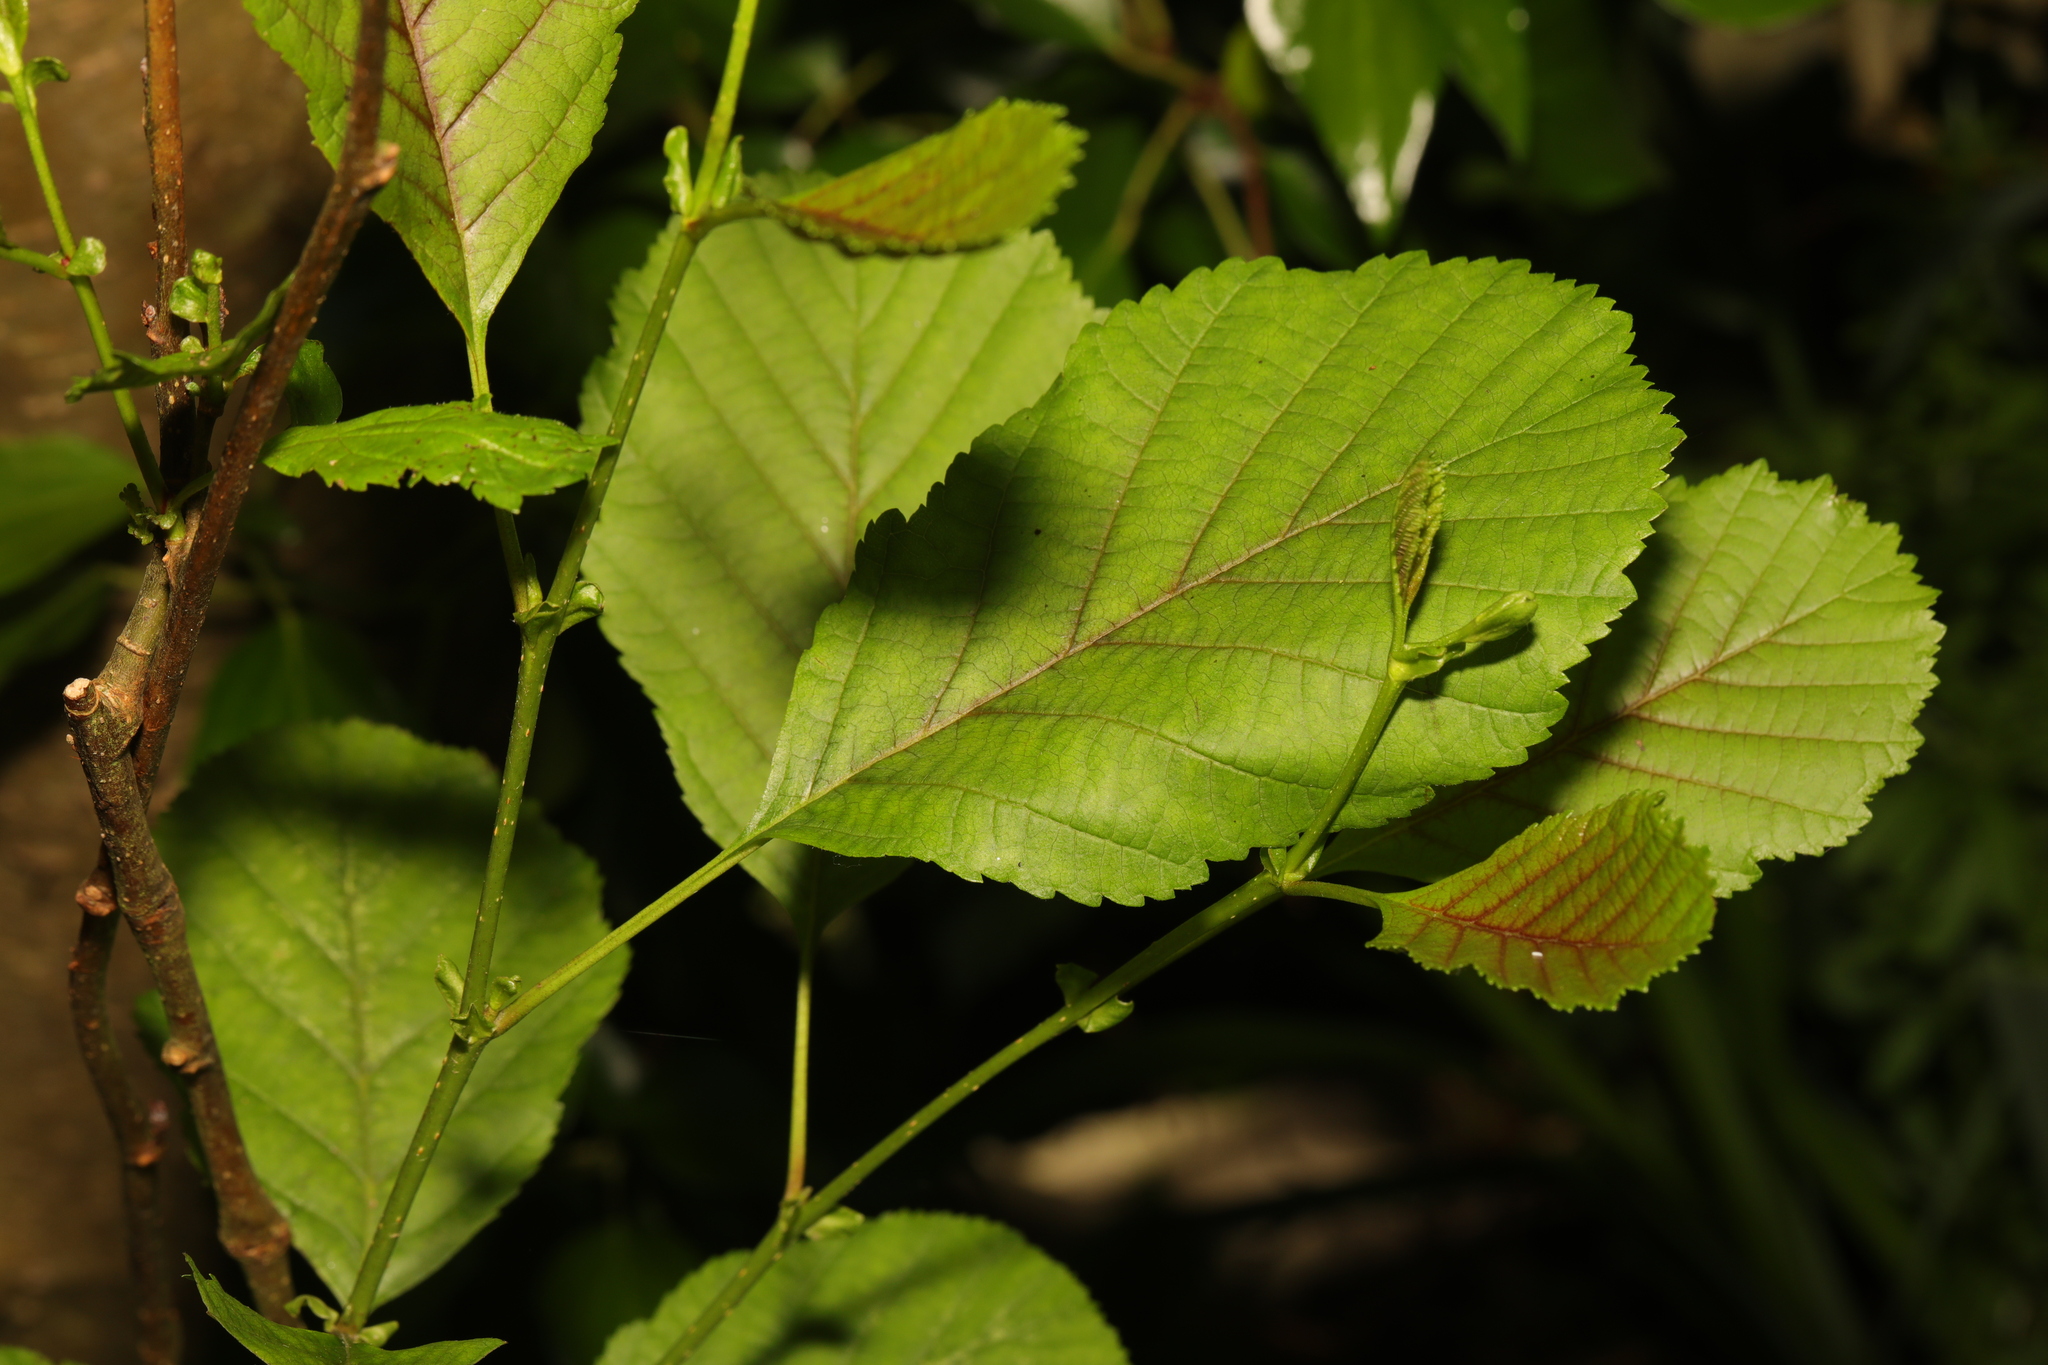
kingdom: Plantae
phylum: Tracheophyta
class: Magnoliopsida
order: Fagales
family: Betulaceae
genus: Alnus
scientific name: Alnus glutinosa
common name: Black alder
